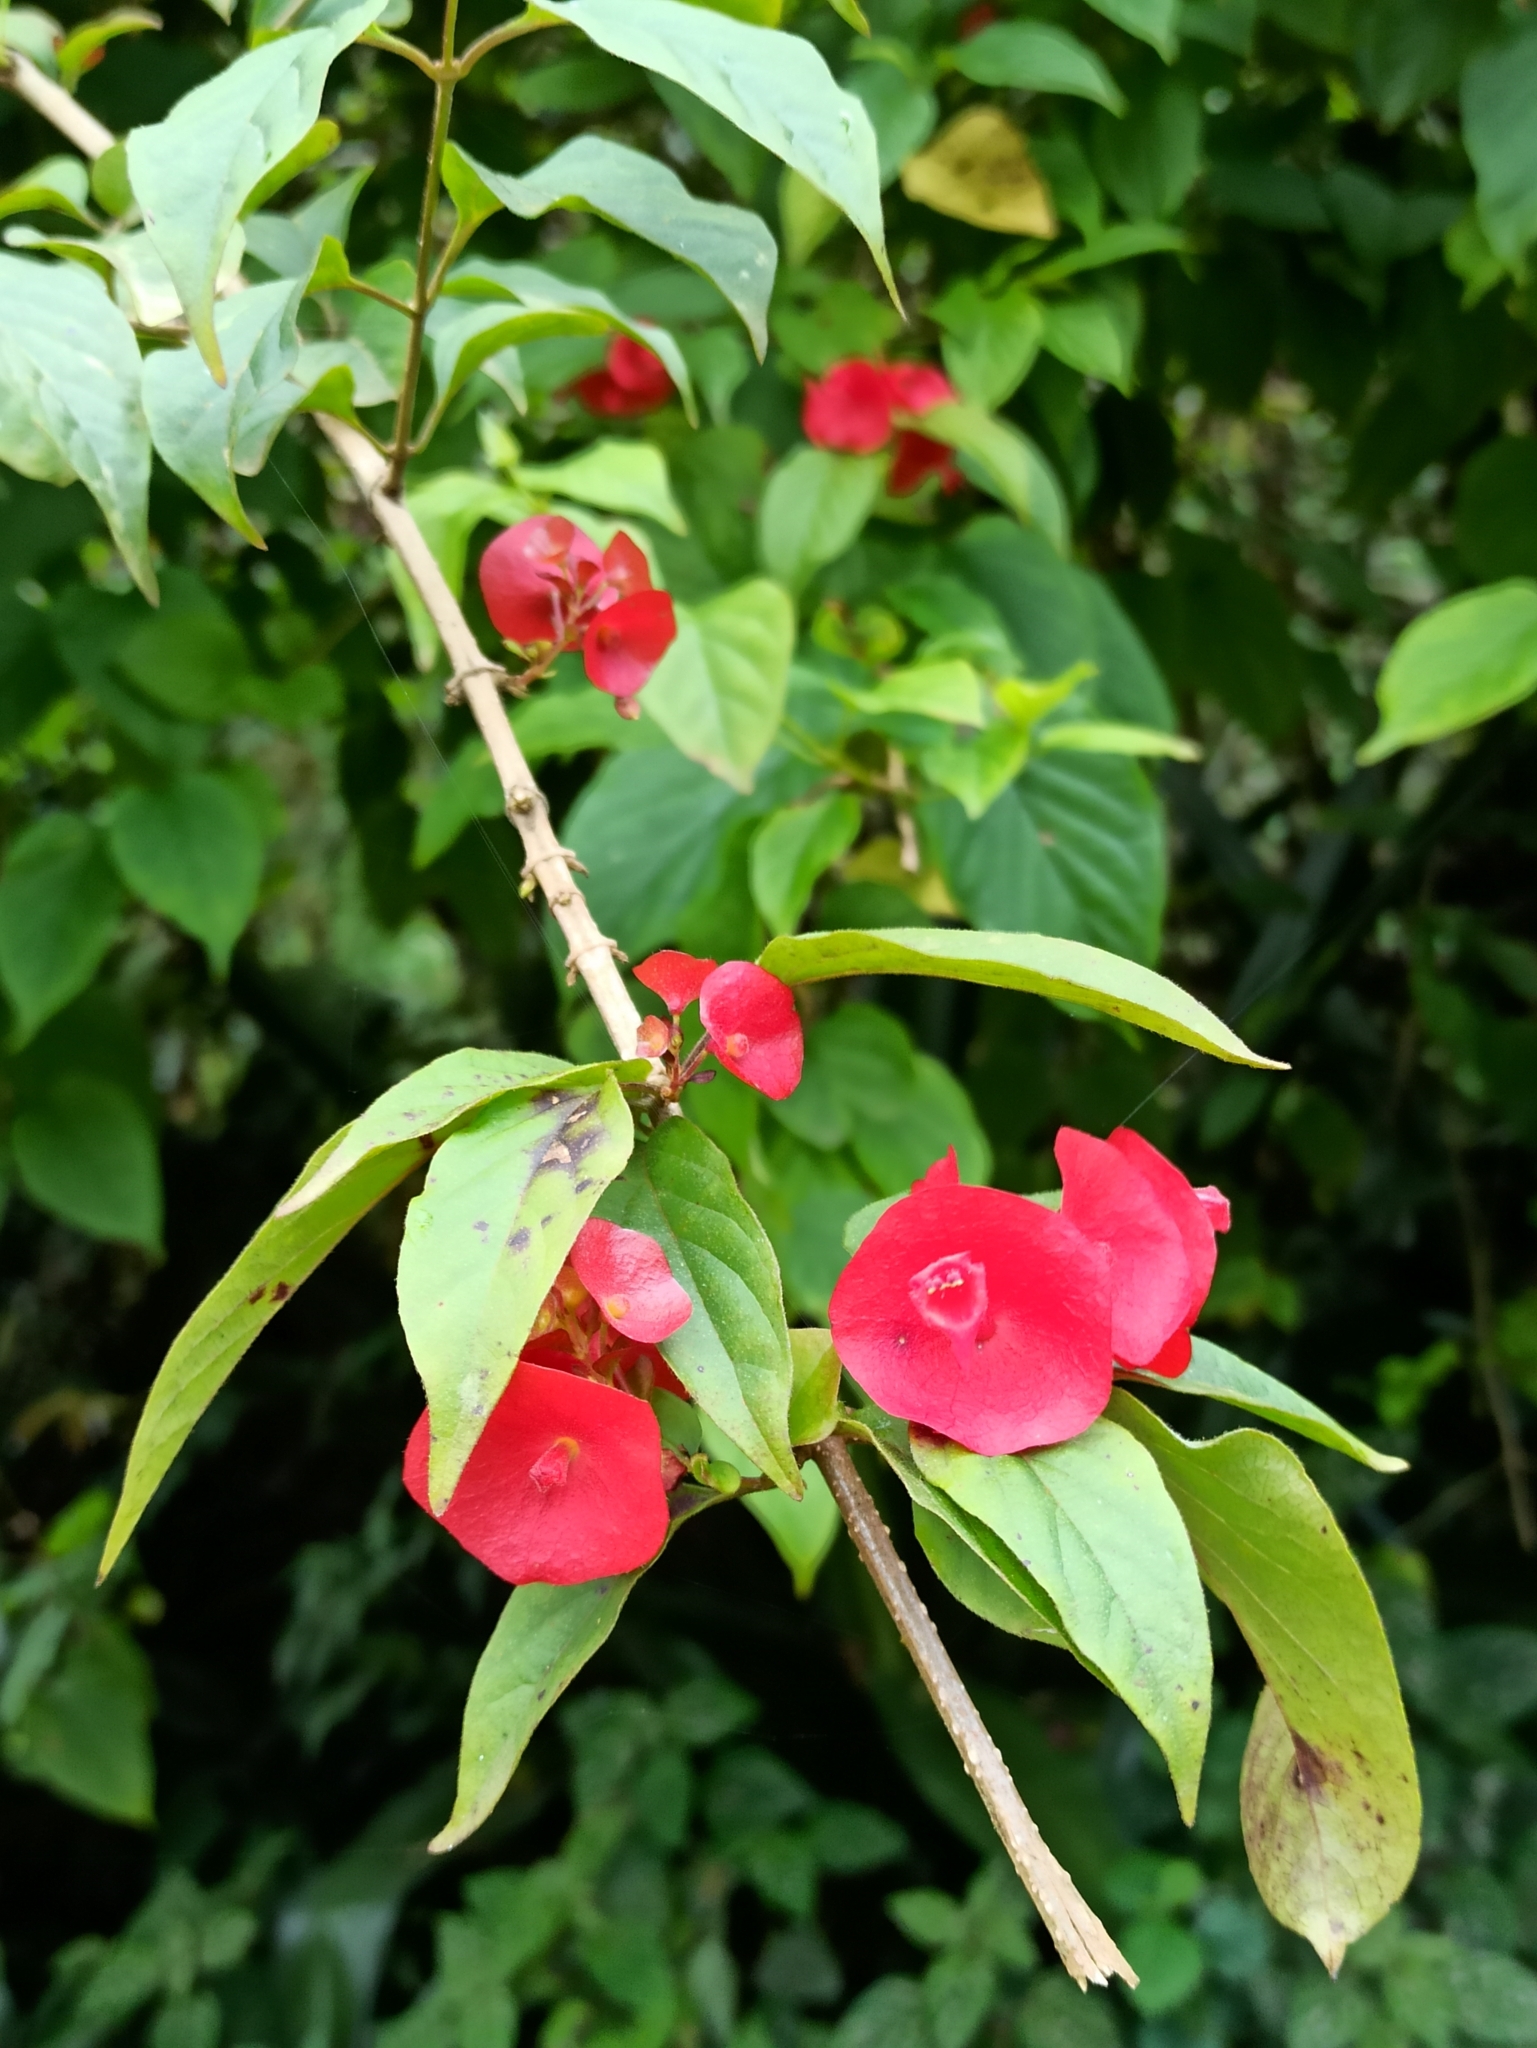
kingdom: Plantae
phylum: Tracheophyta
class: Magnoliopsida
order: Lamiales
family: Lamiaceae
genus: Holmskioldia
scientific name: Holmskioldia sanguinea
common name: Chinese hatplant
